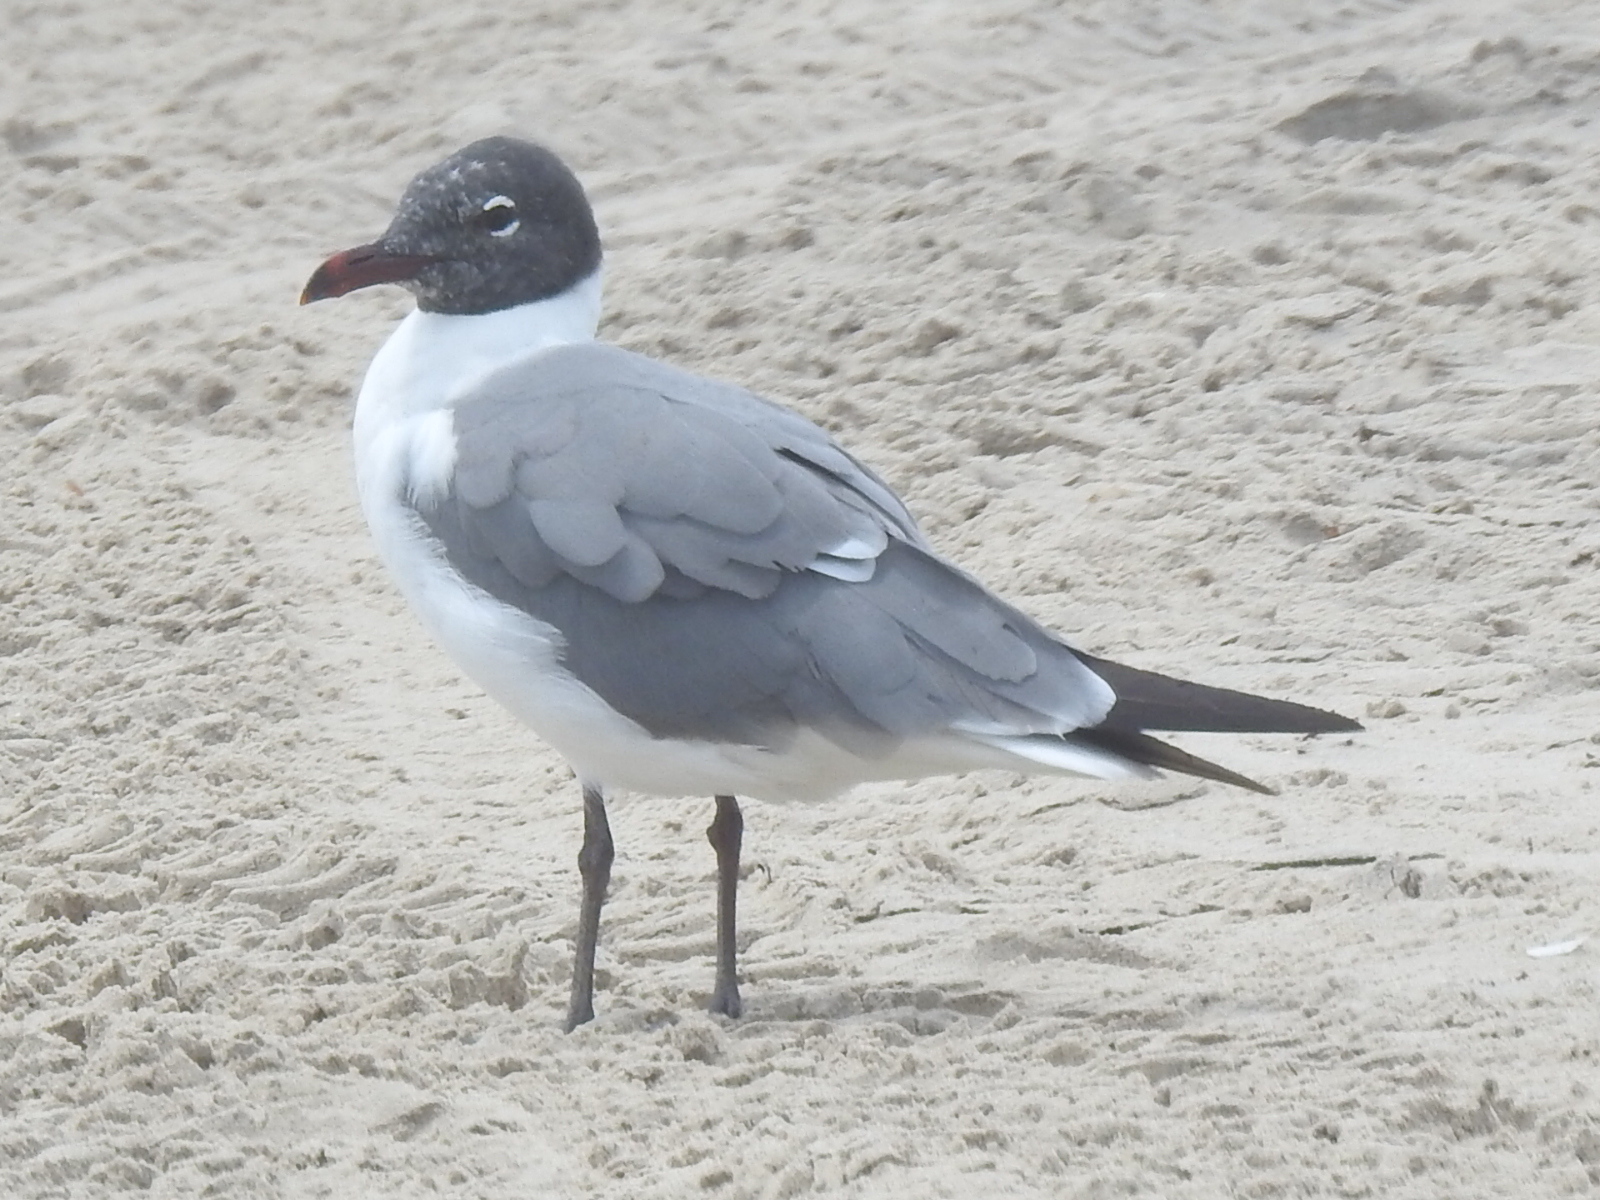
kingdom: Animalia
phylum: Chordata
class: Aves
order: Charadriiformes
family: Laridae
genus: Leucophaeus
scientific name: Leucophaeus atricilla
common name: Laughing gull
